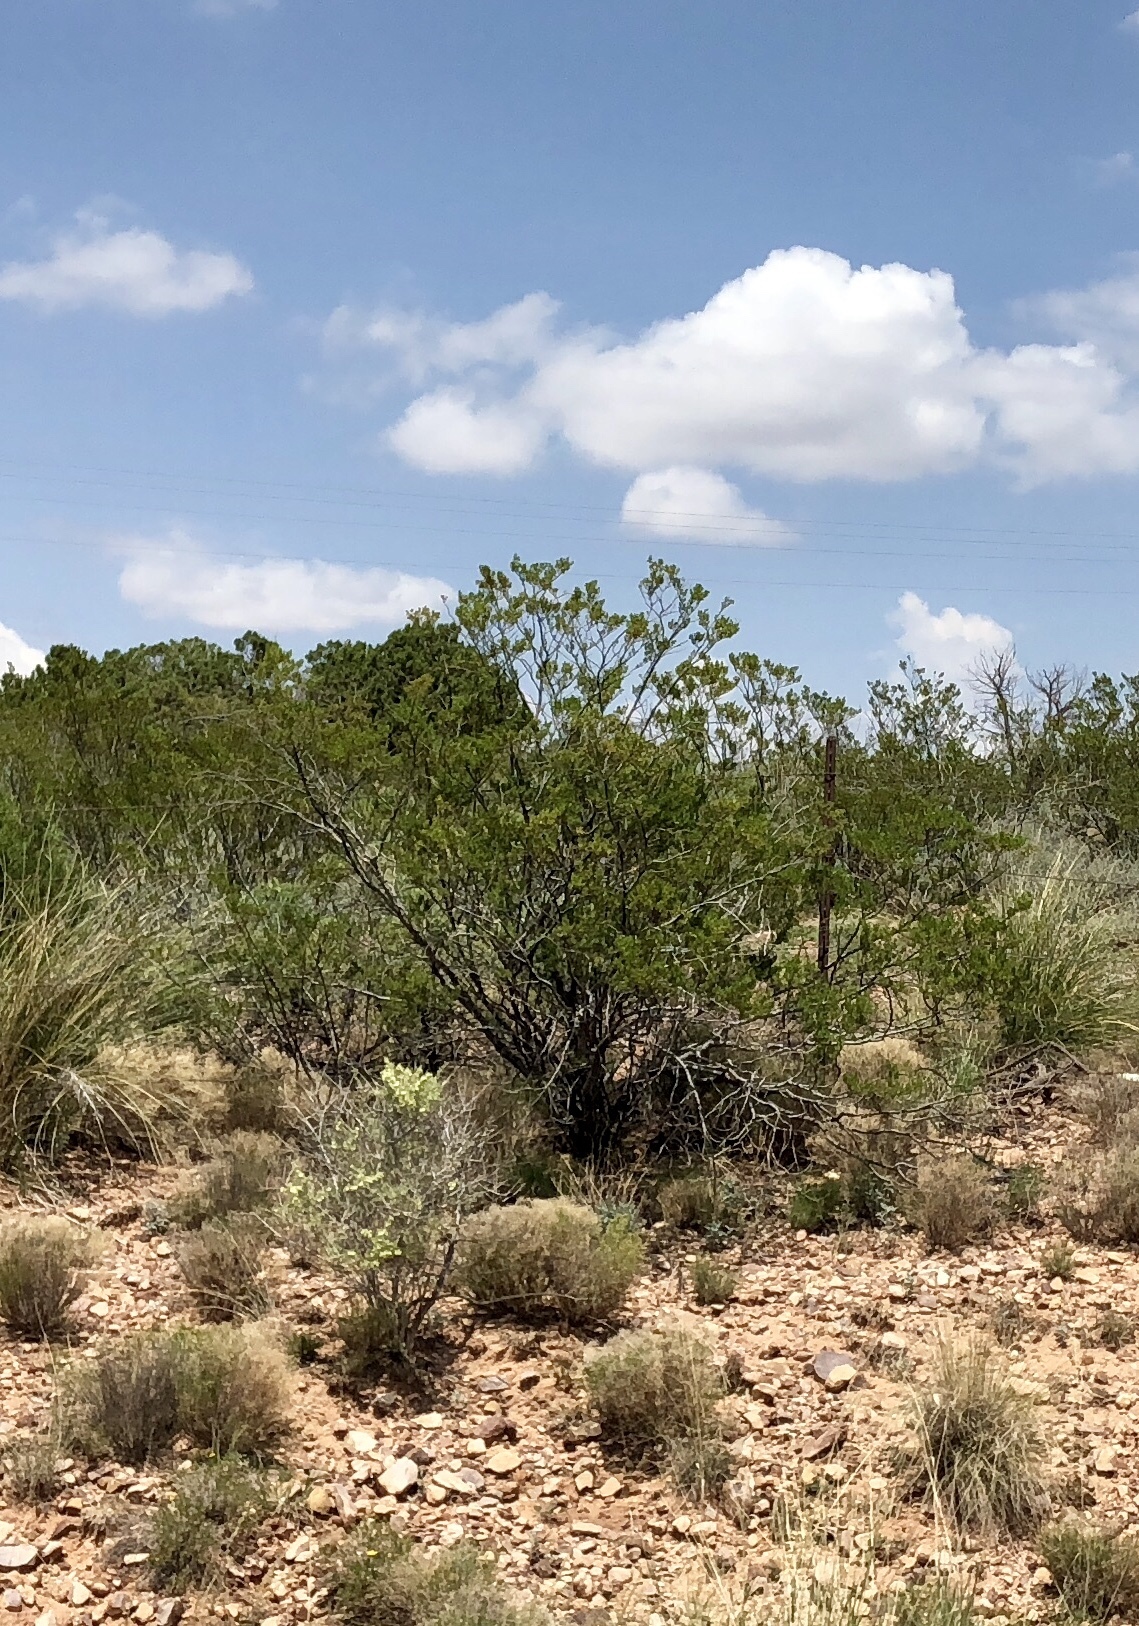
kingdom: Plantae
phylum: Tracheophyta
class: Magnoliopsida
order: Zygophyllales
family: Zygophyllaceae
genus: Larrea
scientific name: Larrea tridentata
